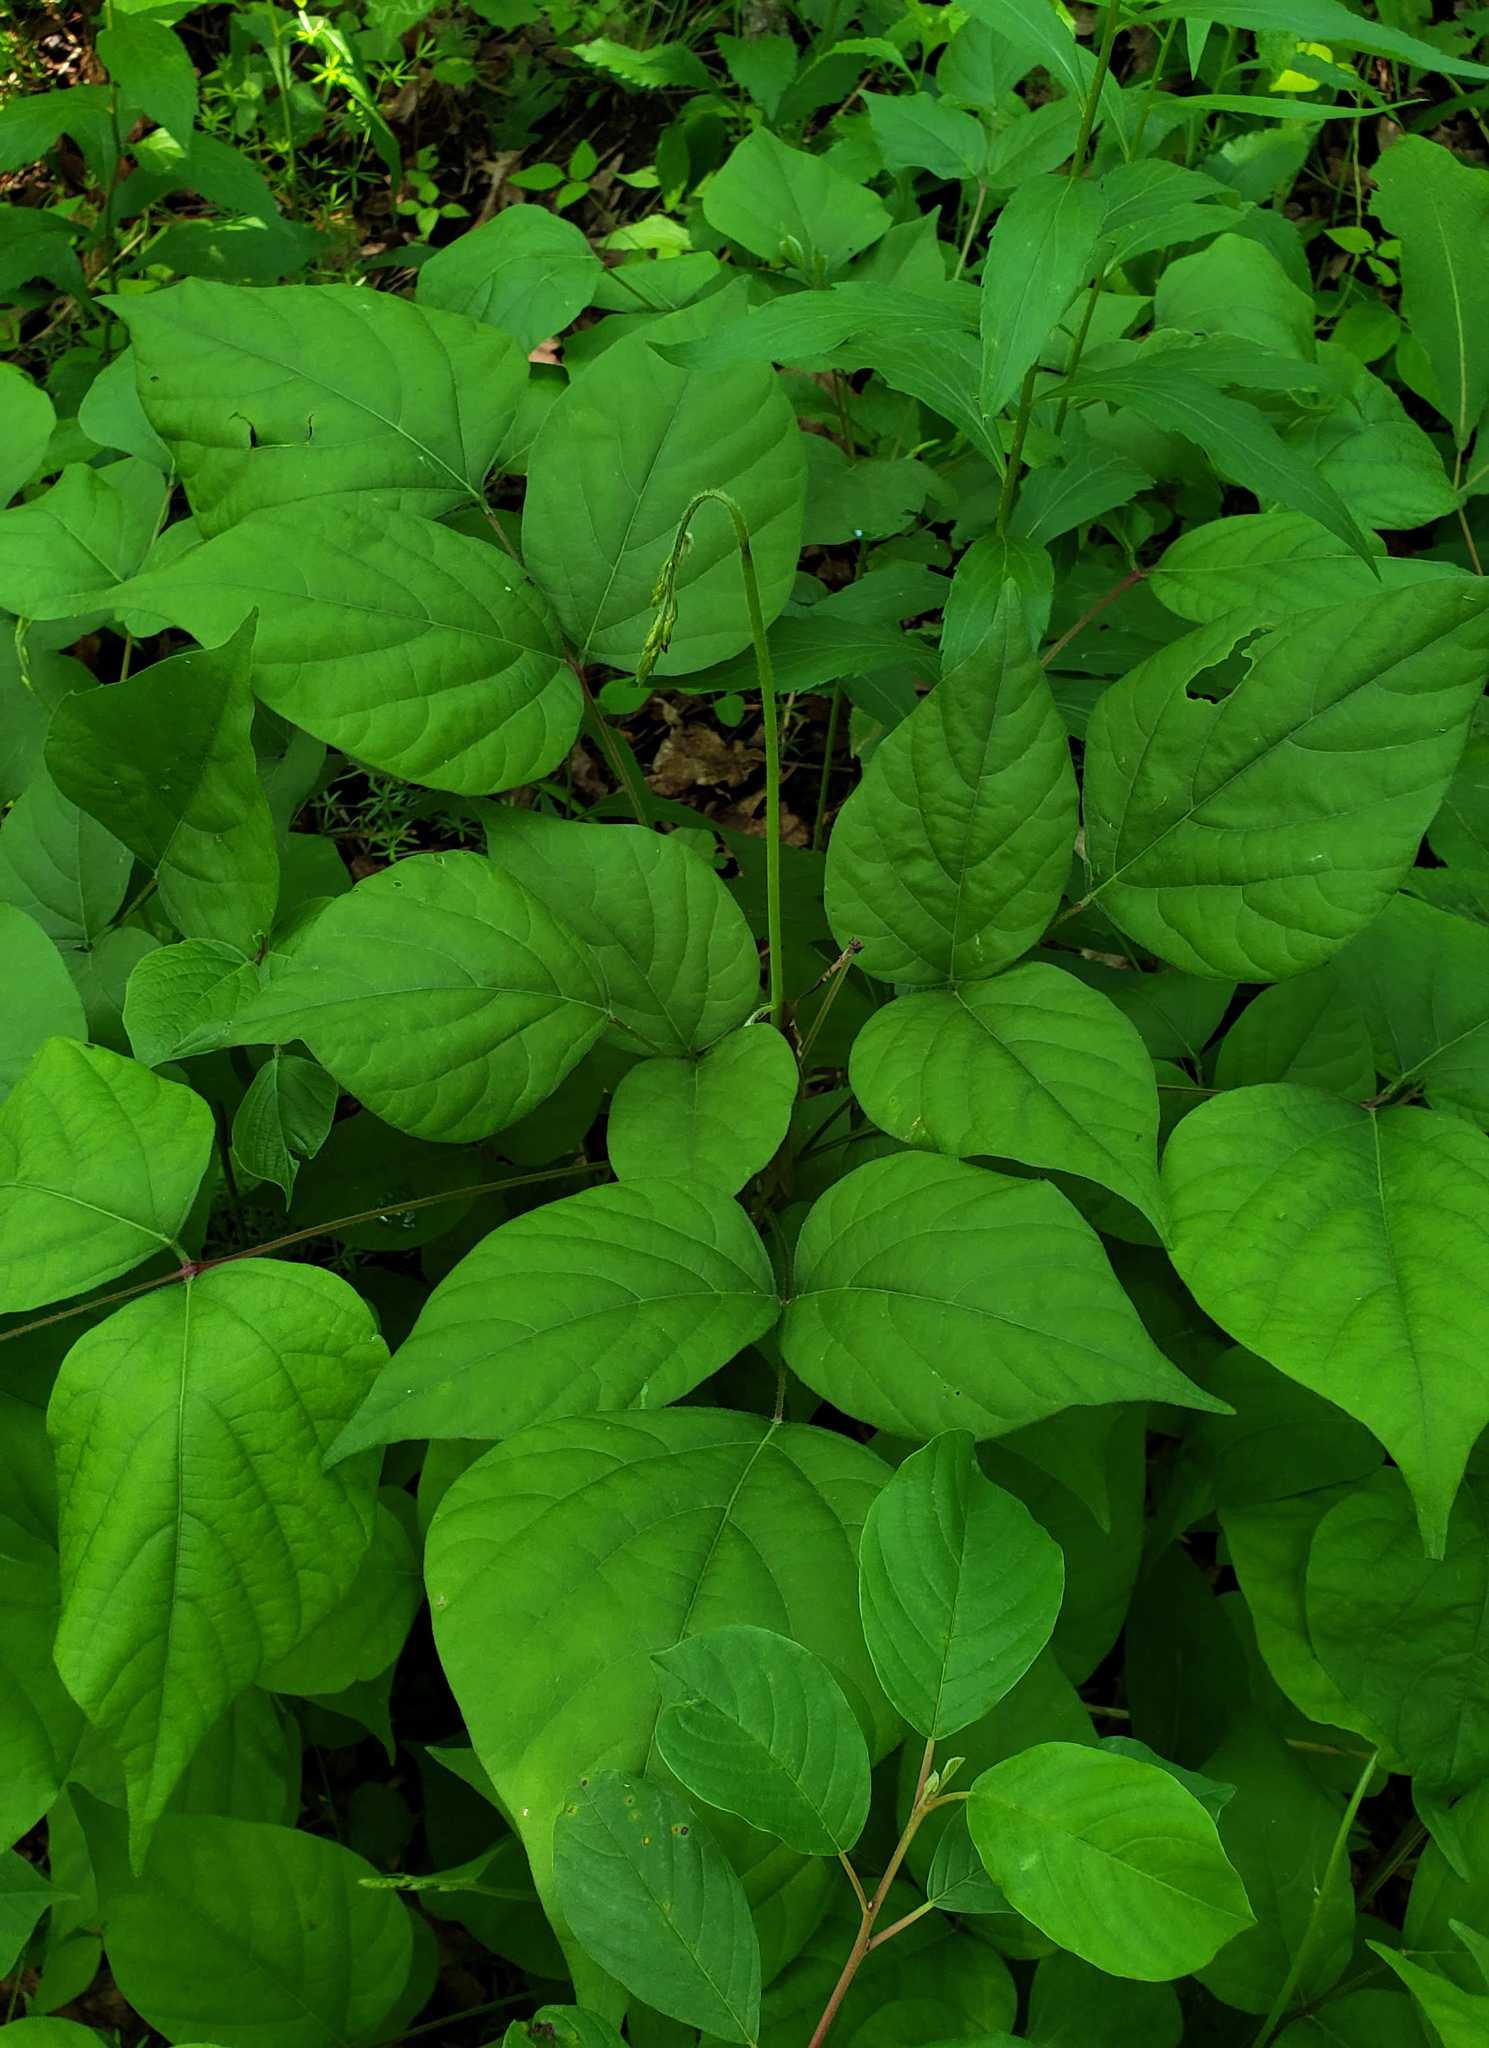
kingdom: Plantae
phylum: Tracheophyta
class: Magnoliopsida
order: Fabales
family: Fabaceae
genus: Hylodesmum
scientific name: Hylodesmum glutinosum
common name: Clustered-leaved tick-trefoil
